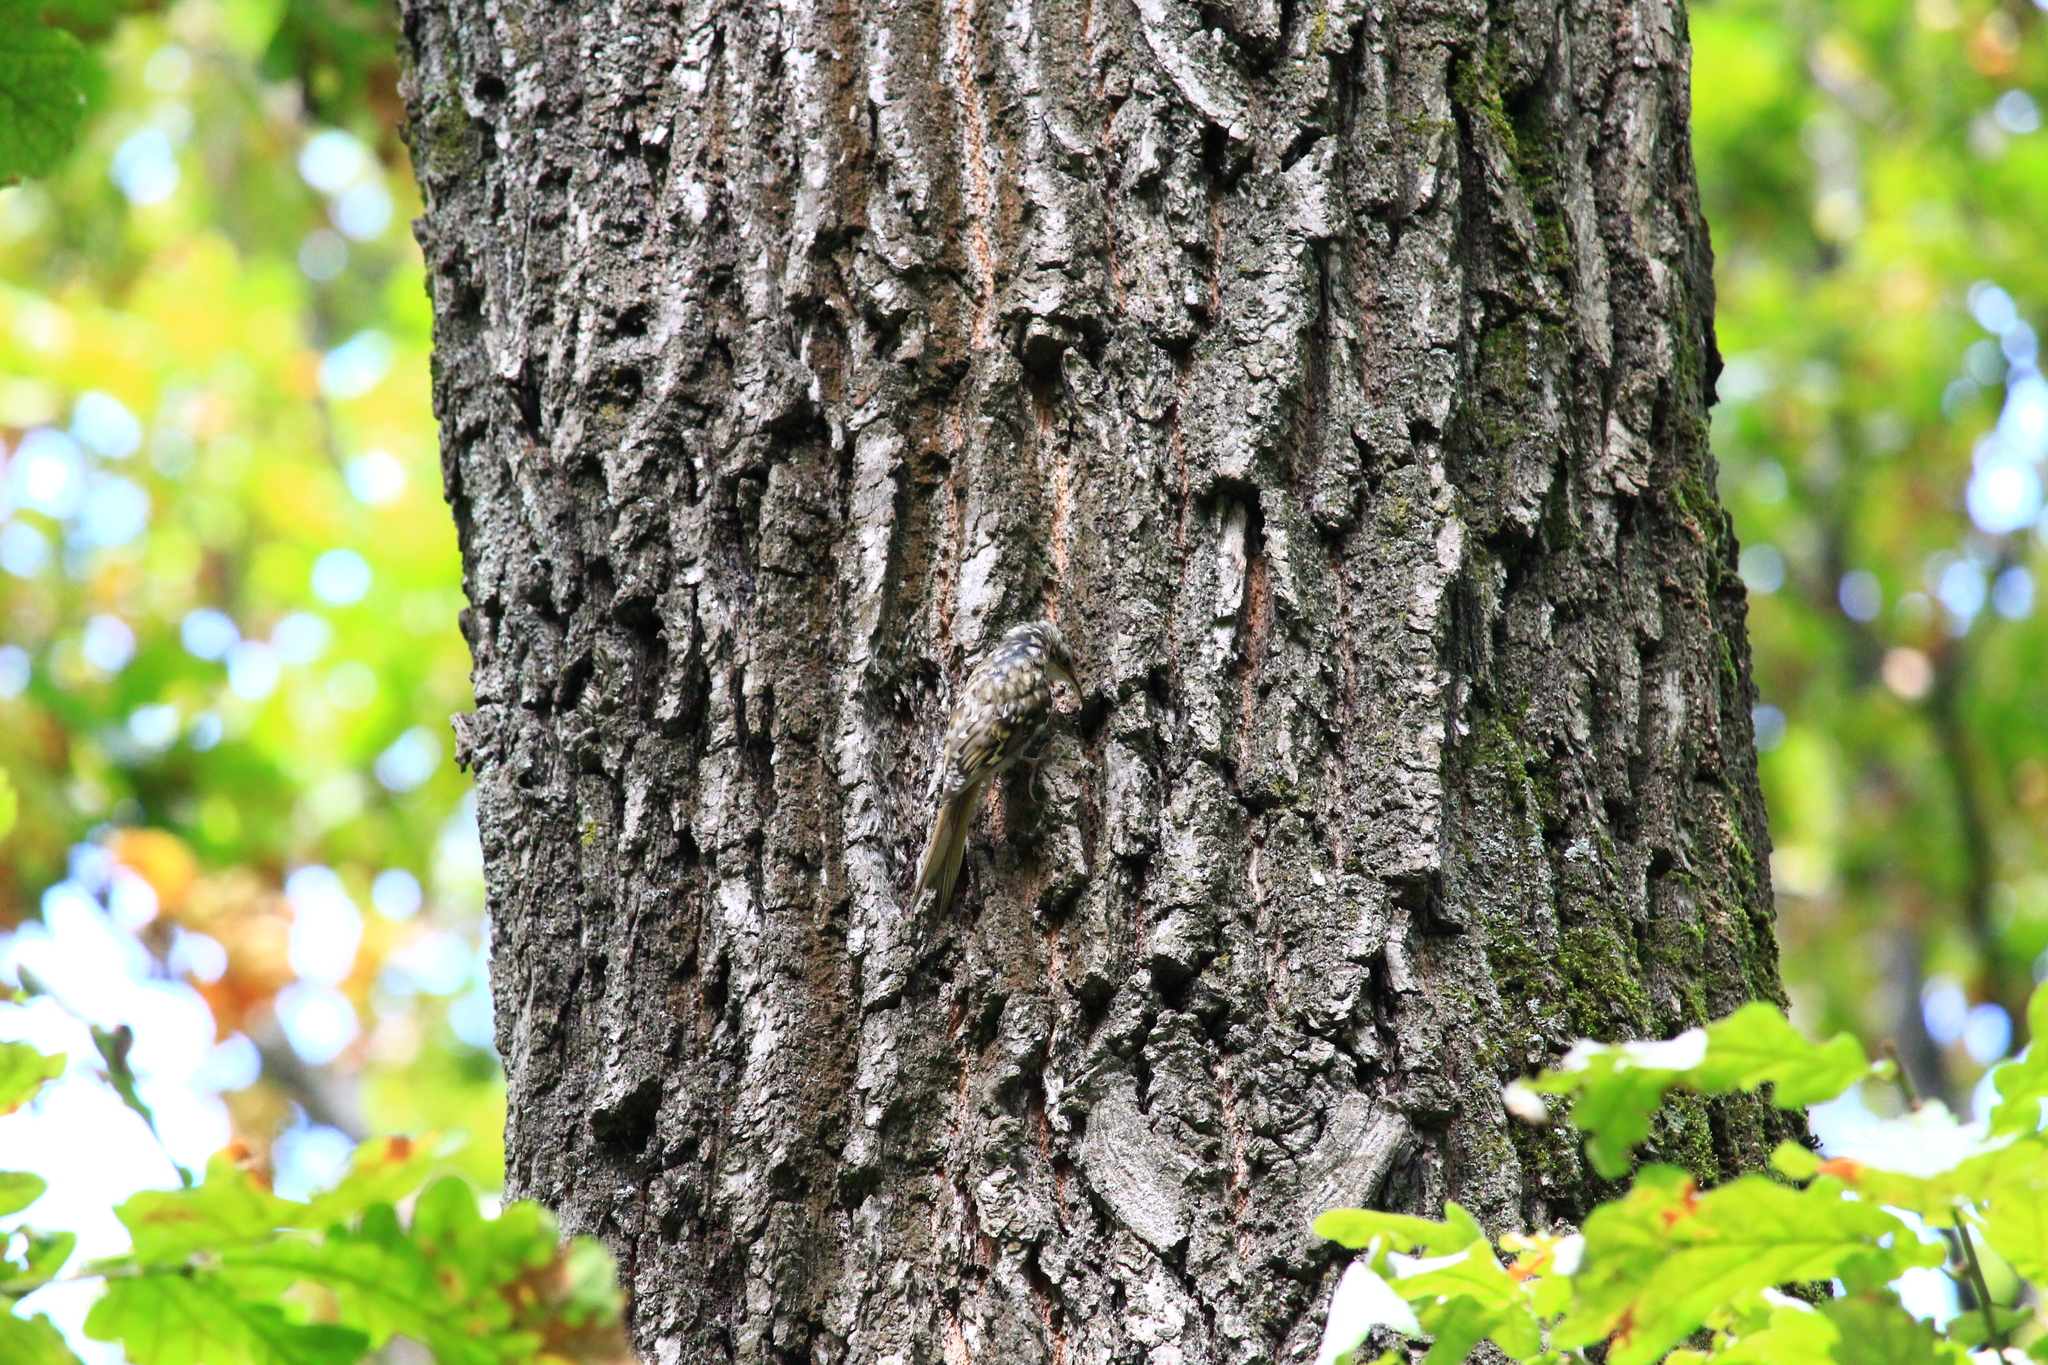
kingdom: Animalia
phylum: Chordata
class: Aves
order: Passeriformes
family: Certhiidae
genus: Certhia
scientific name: Certhia familiaris
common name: Eurasian treecreeper
